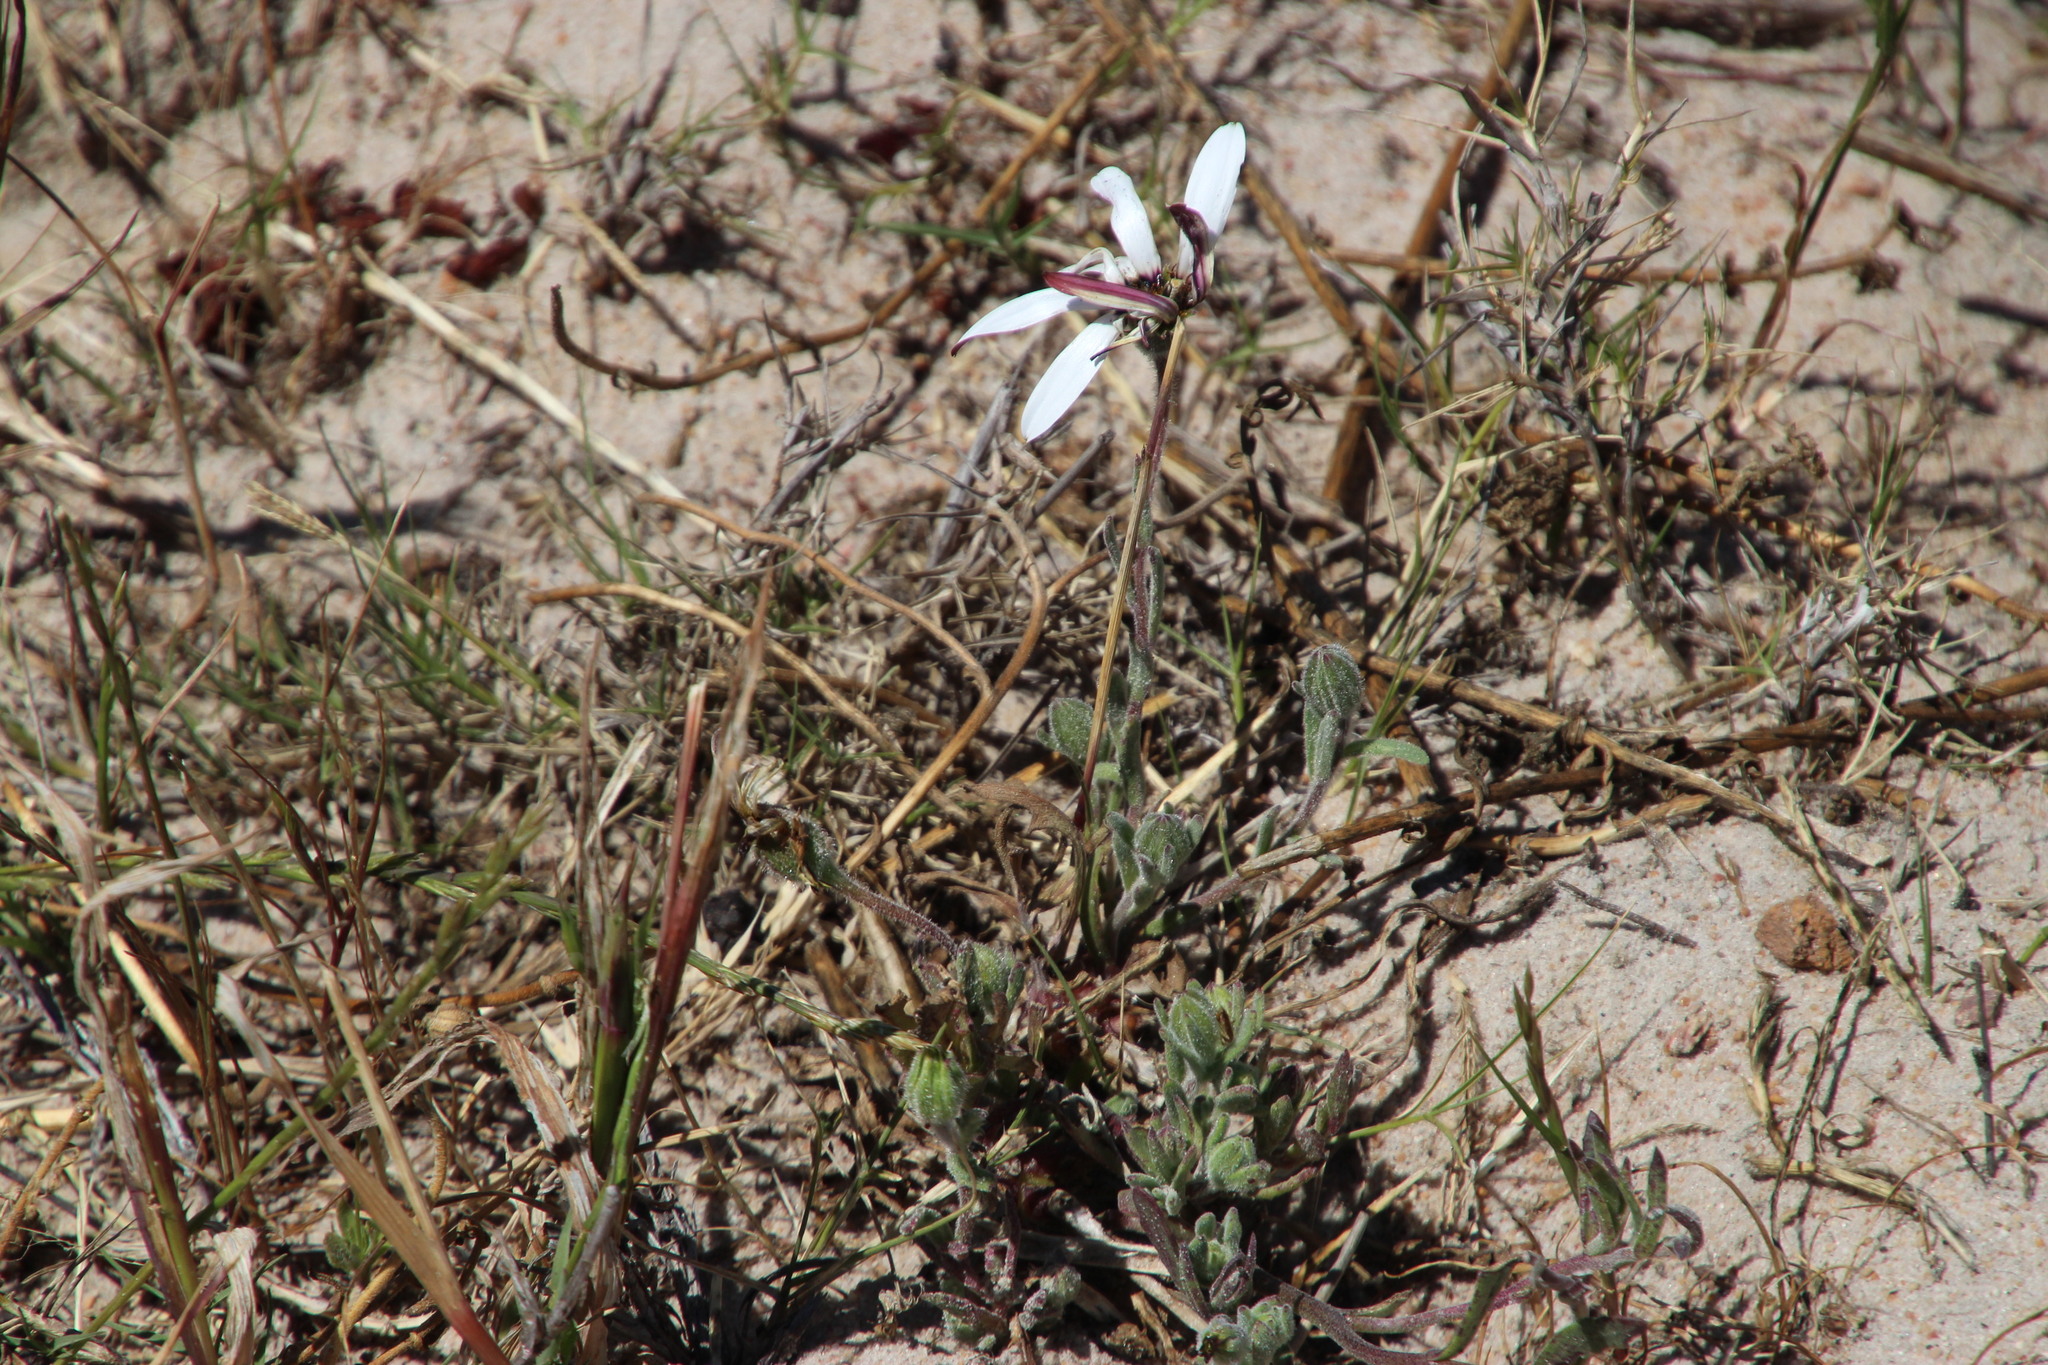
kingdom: Plantae
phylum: Tracheophyta
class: Magnoliopsida
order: Asterales
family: Asteraceae
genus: Dimorphotheca
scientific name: Dimorphotheca pluvialis
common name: Weather prophet
